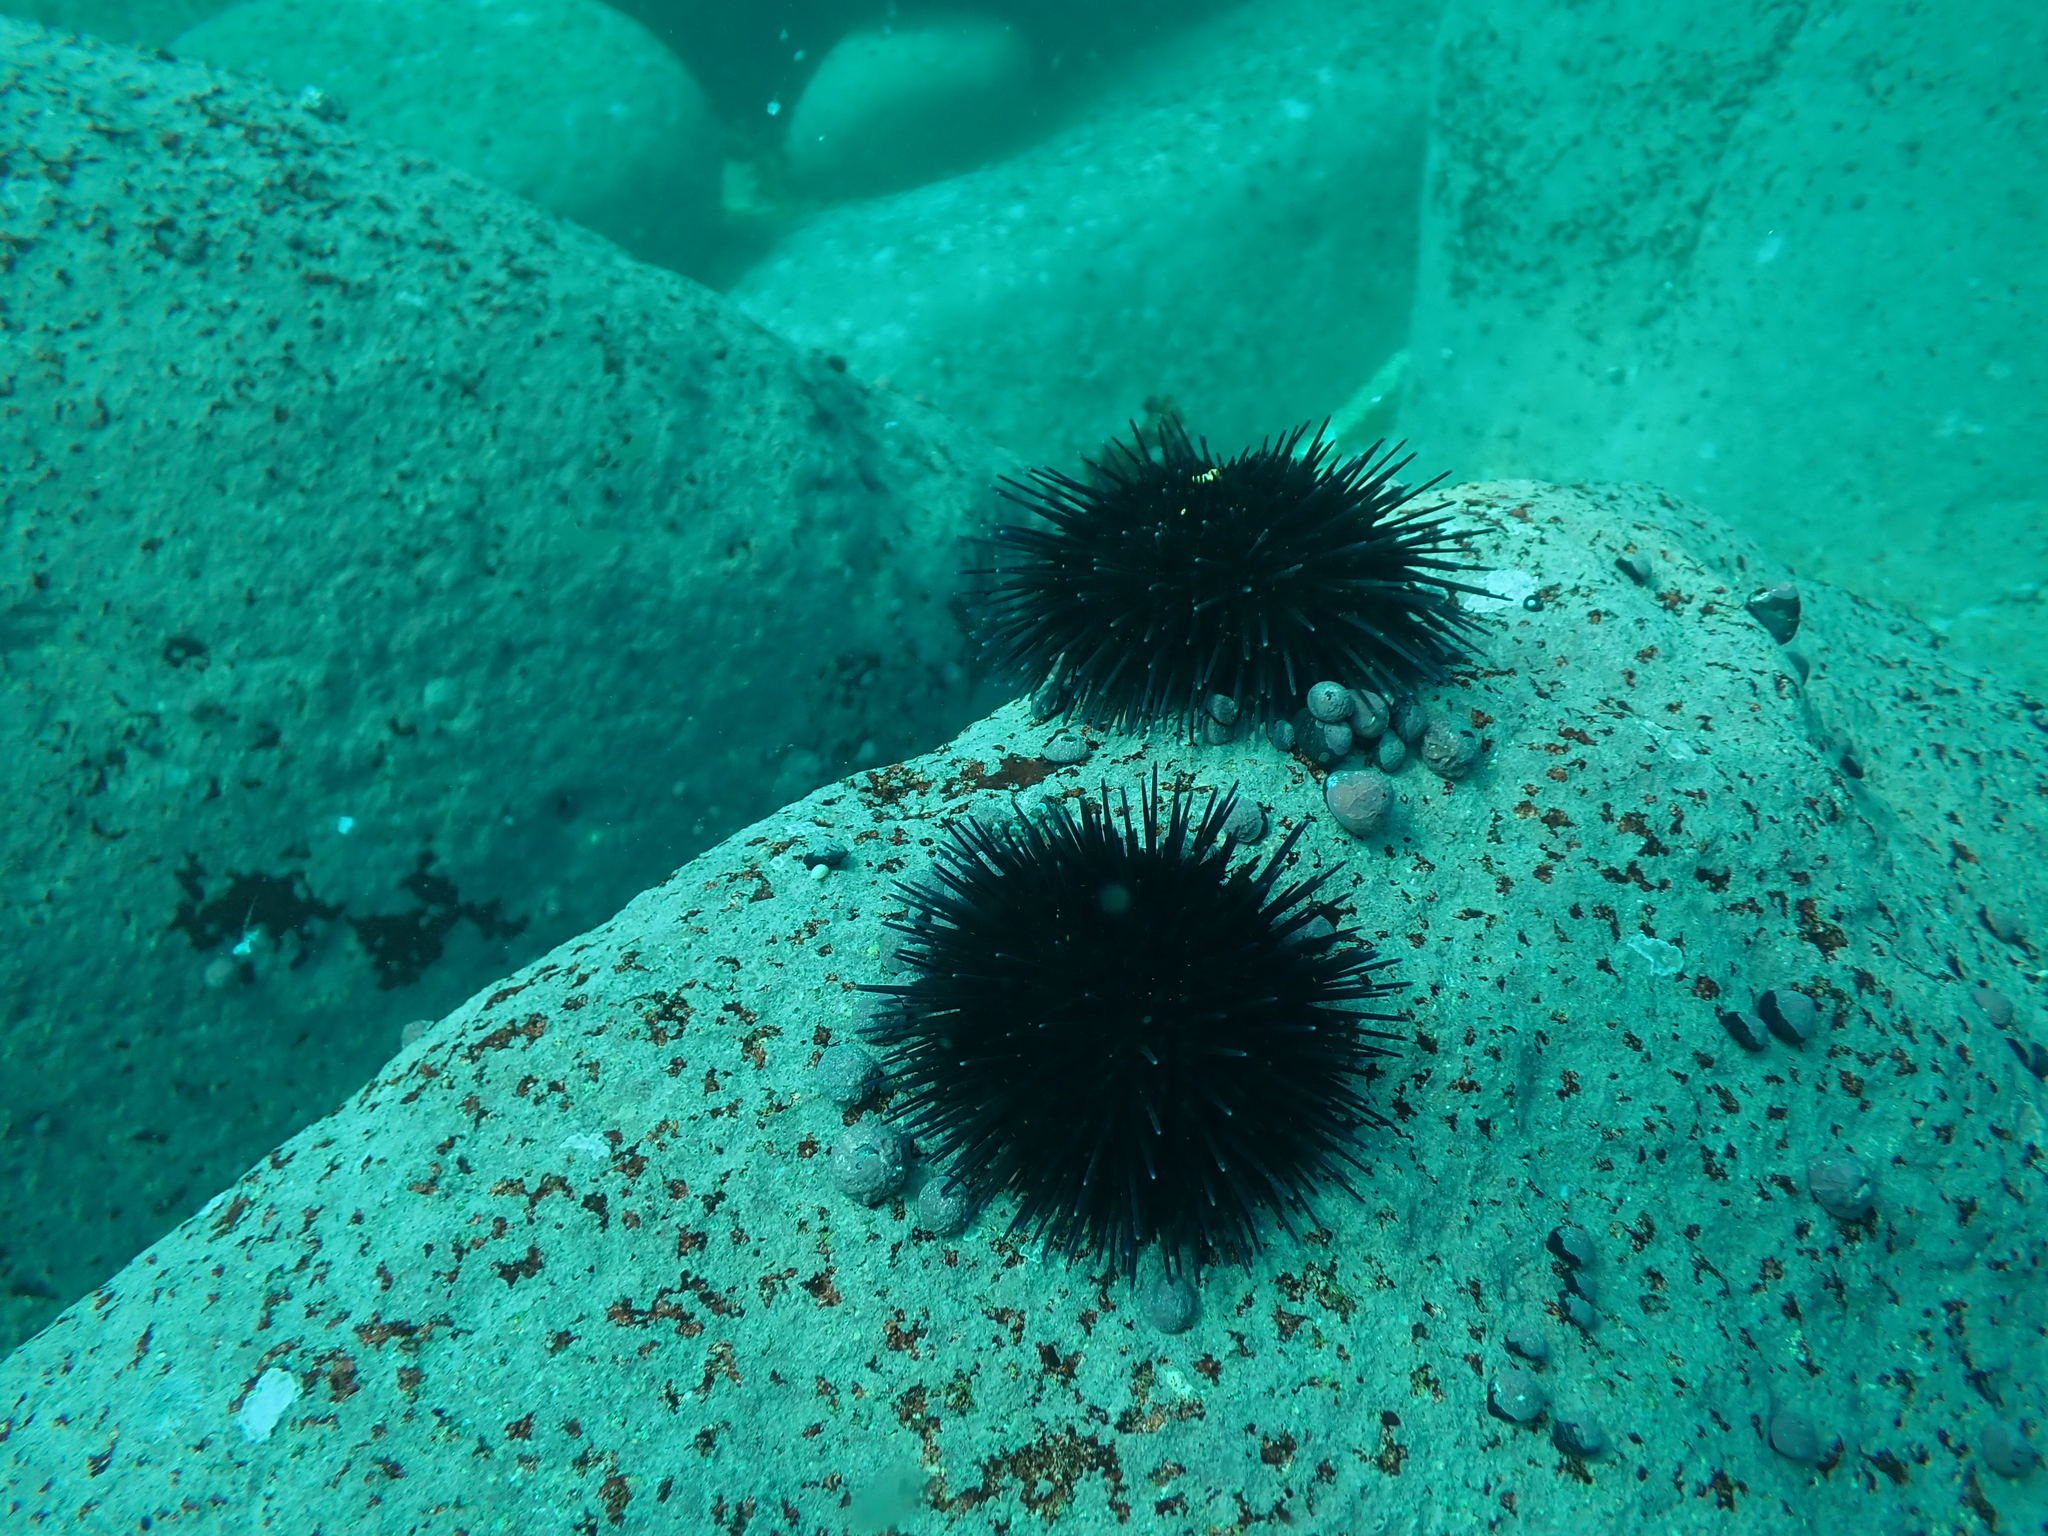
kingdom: Animalia
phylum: Echinodermata
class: Echinoidea
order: Arbacioida
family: Arbaciidae
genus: Tetrapygus
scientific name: Tetrapygus niger
